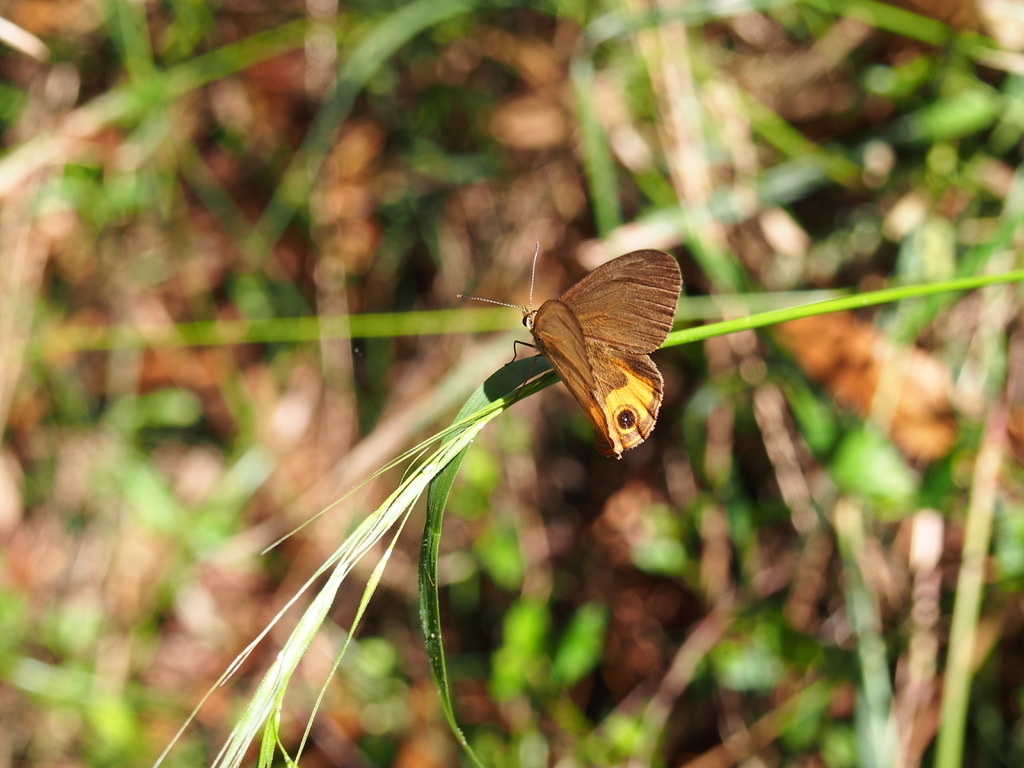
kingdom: Animalia
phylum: Arthropoda
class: Insecta
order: Lepidoptera
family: Nymphalidae
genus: Hypocysta
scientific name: Hypocysta metirius
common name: Brown ringlet
